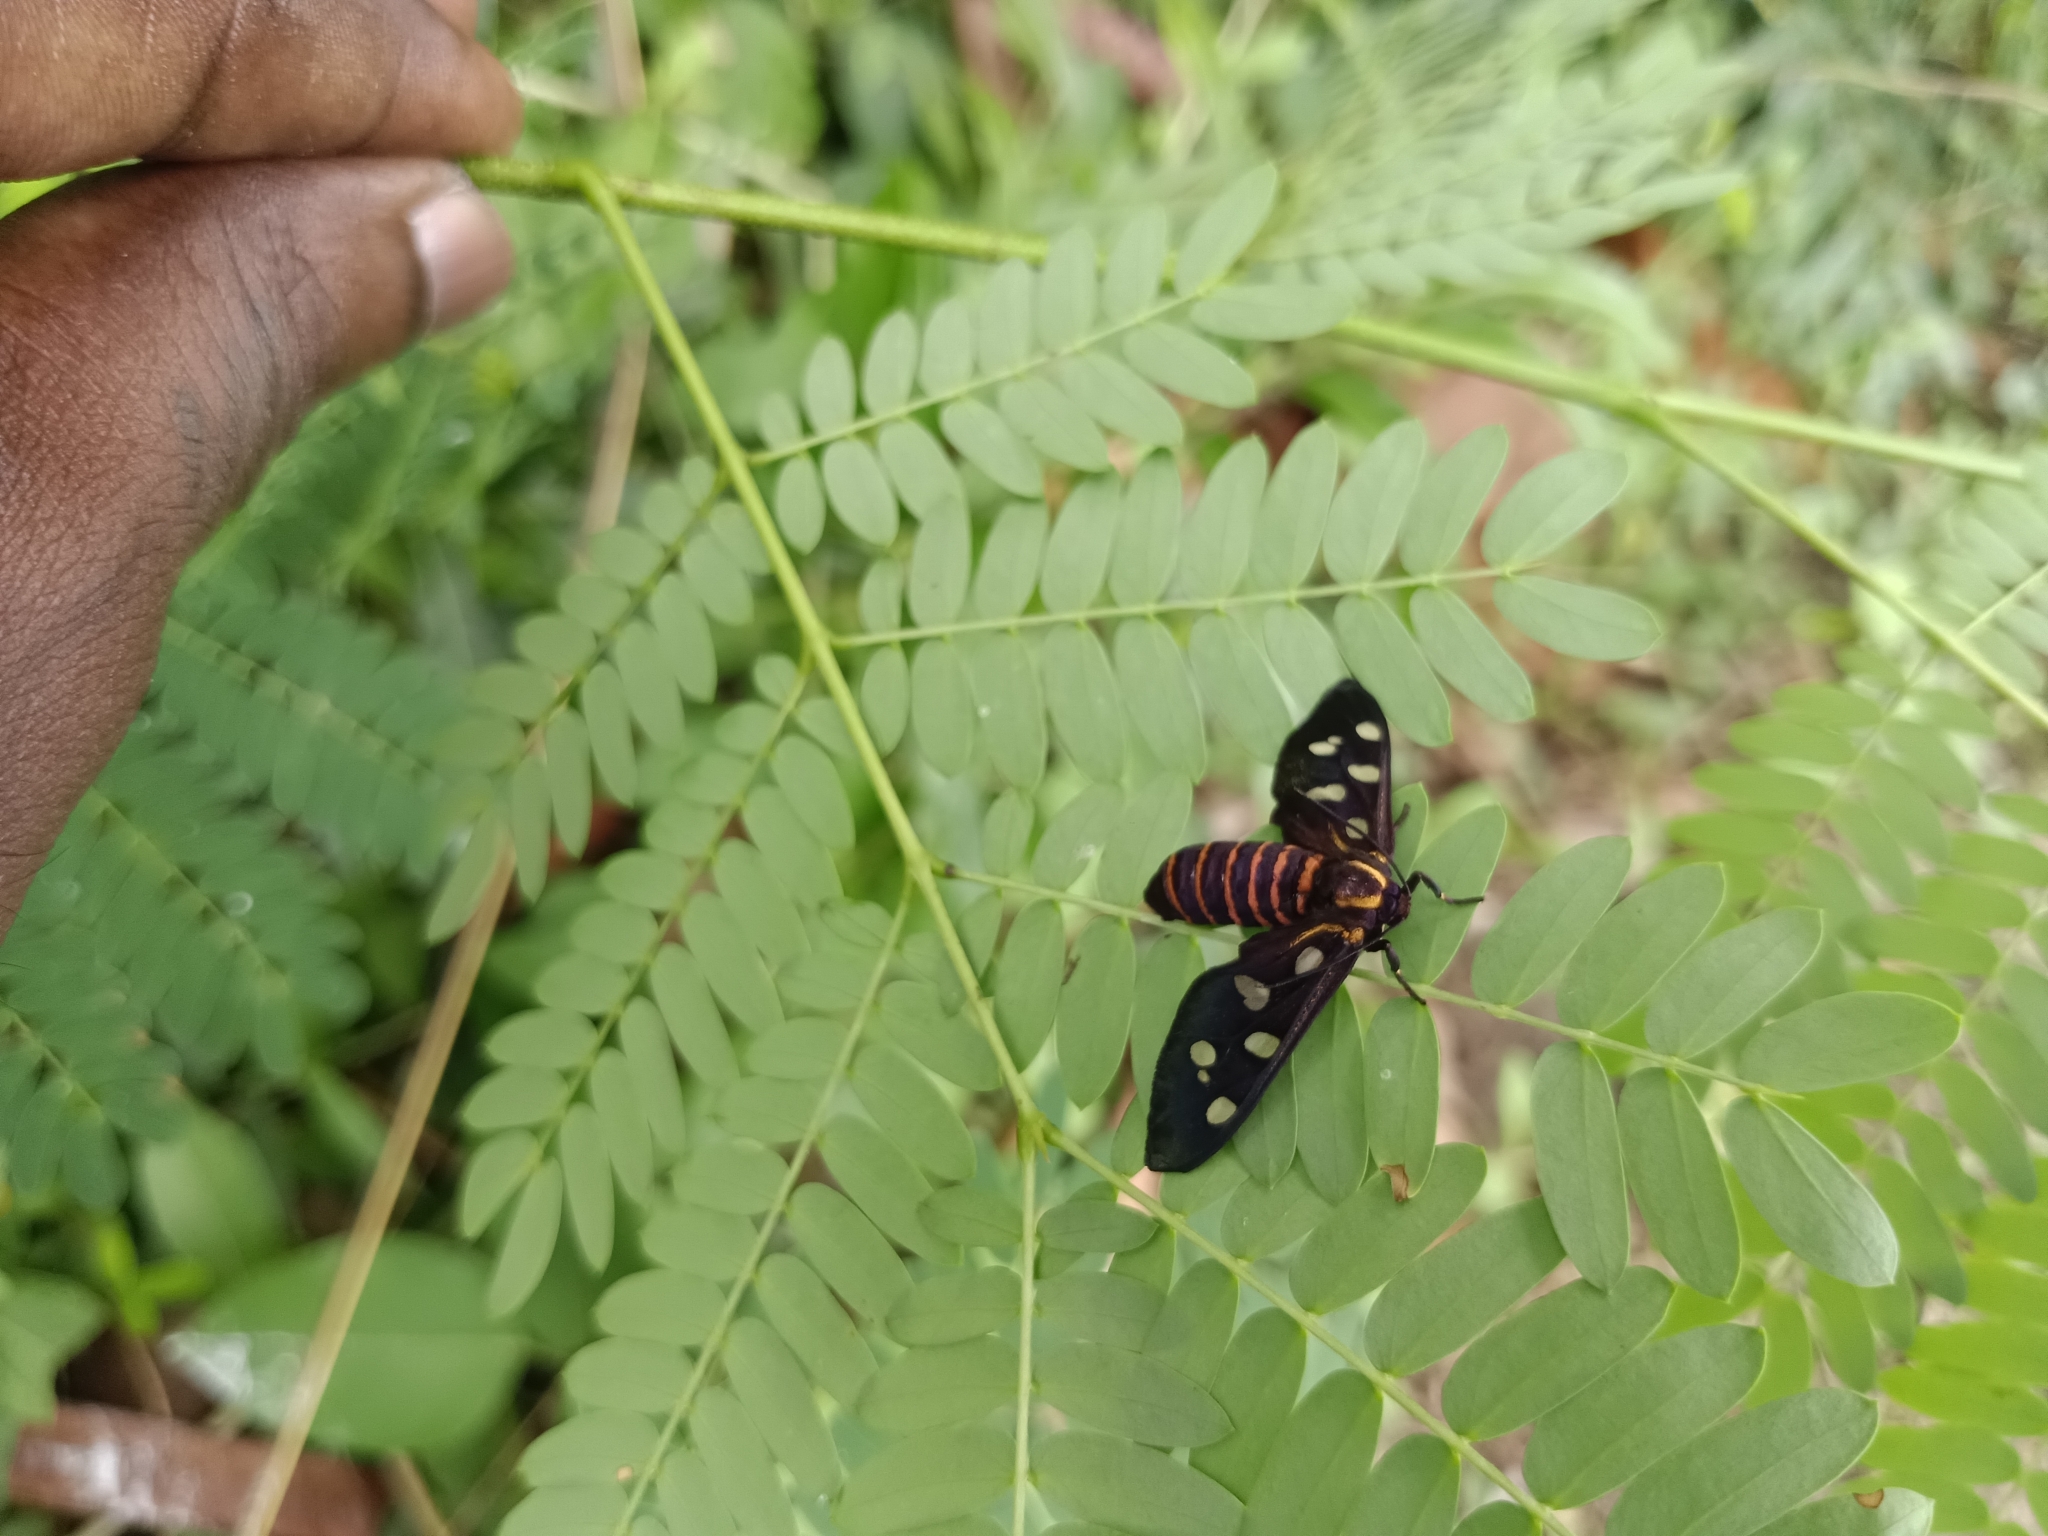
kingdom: Animalia
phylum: Arthropoda
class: Insecta
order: Lepidoptera
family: Erebidae
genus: Amata
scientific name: Amata passalis
